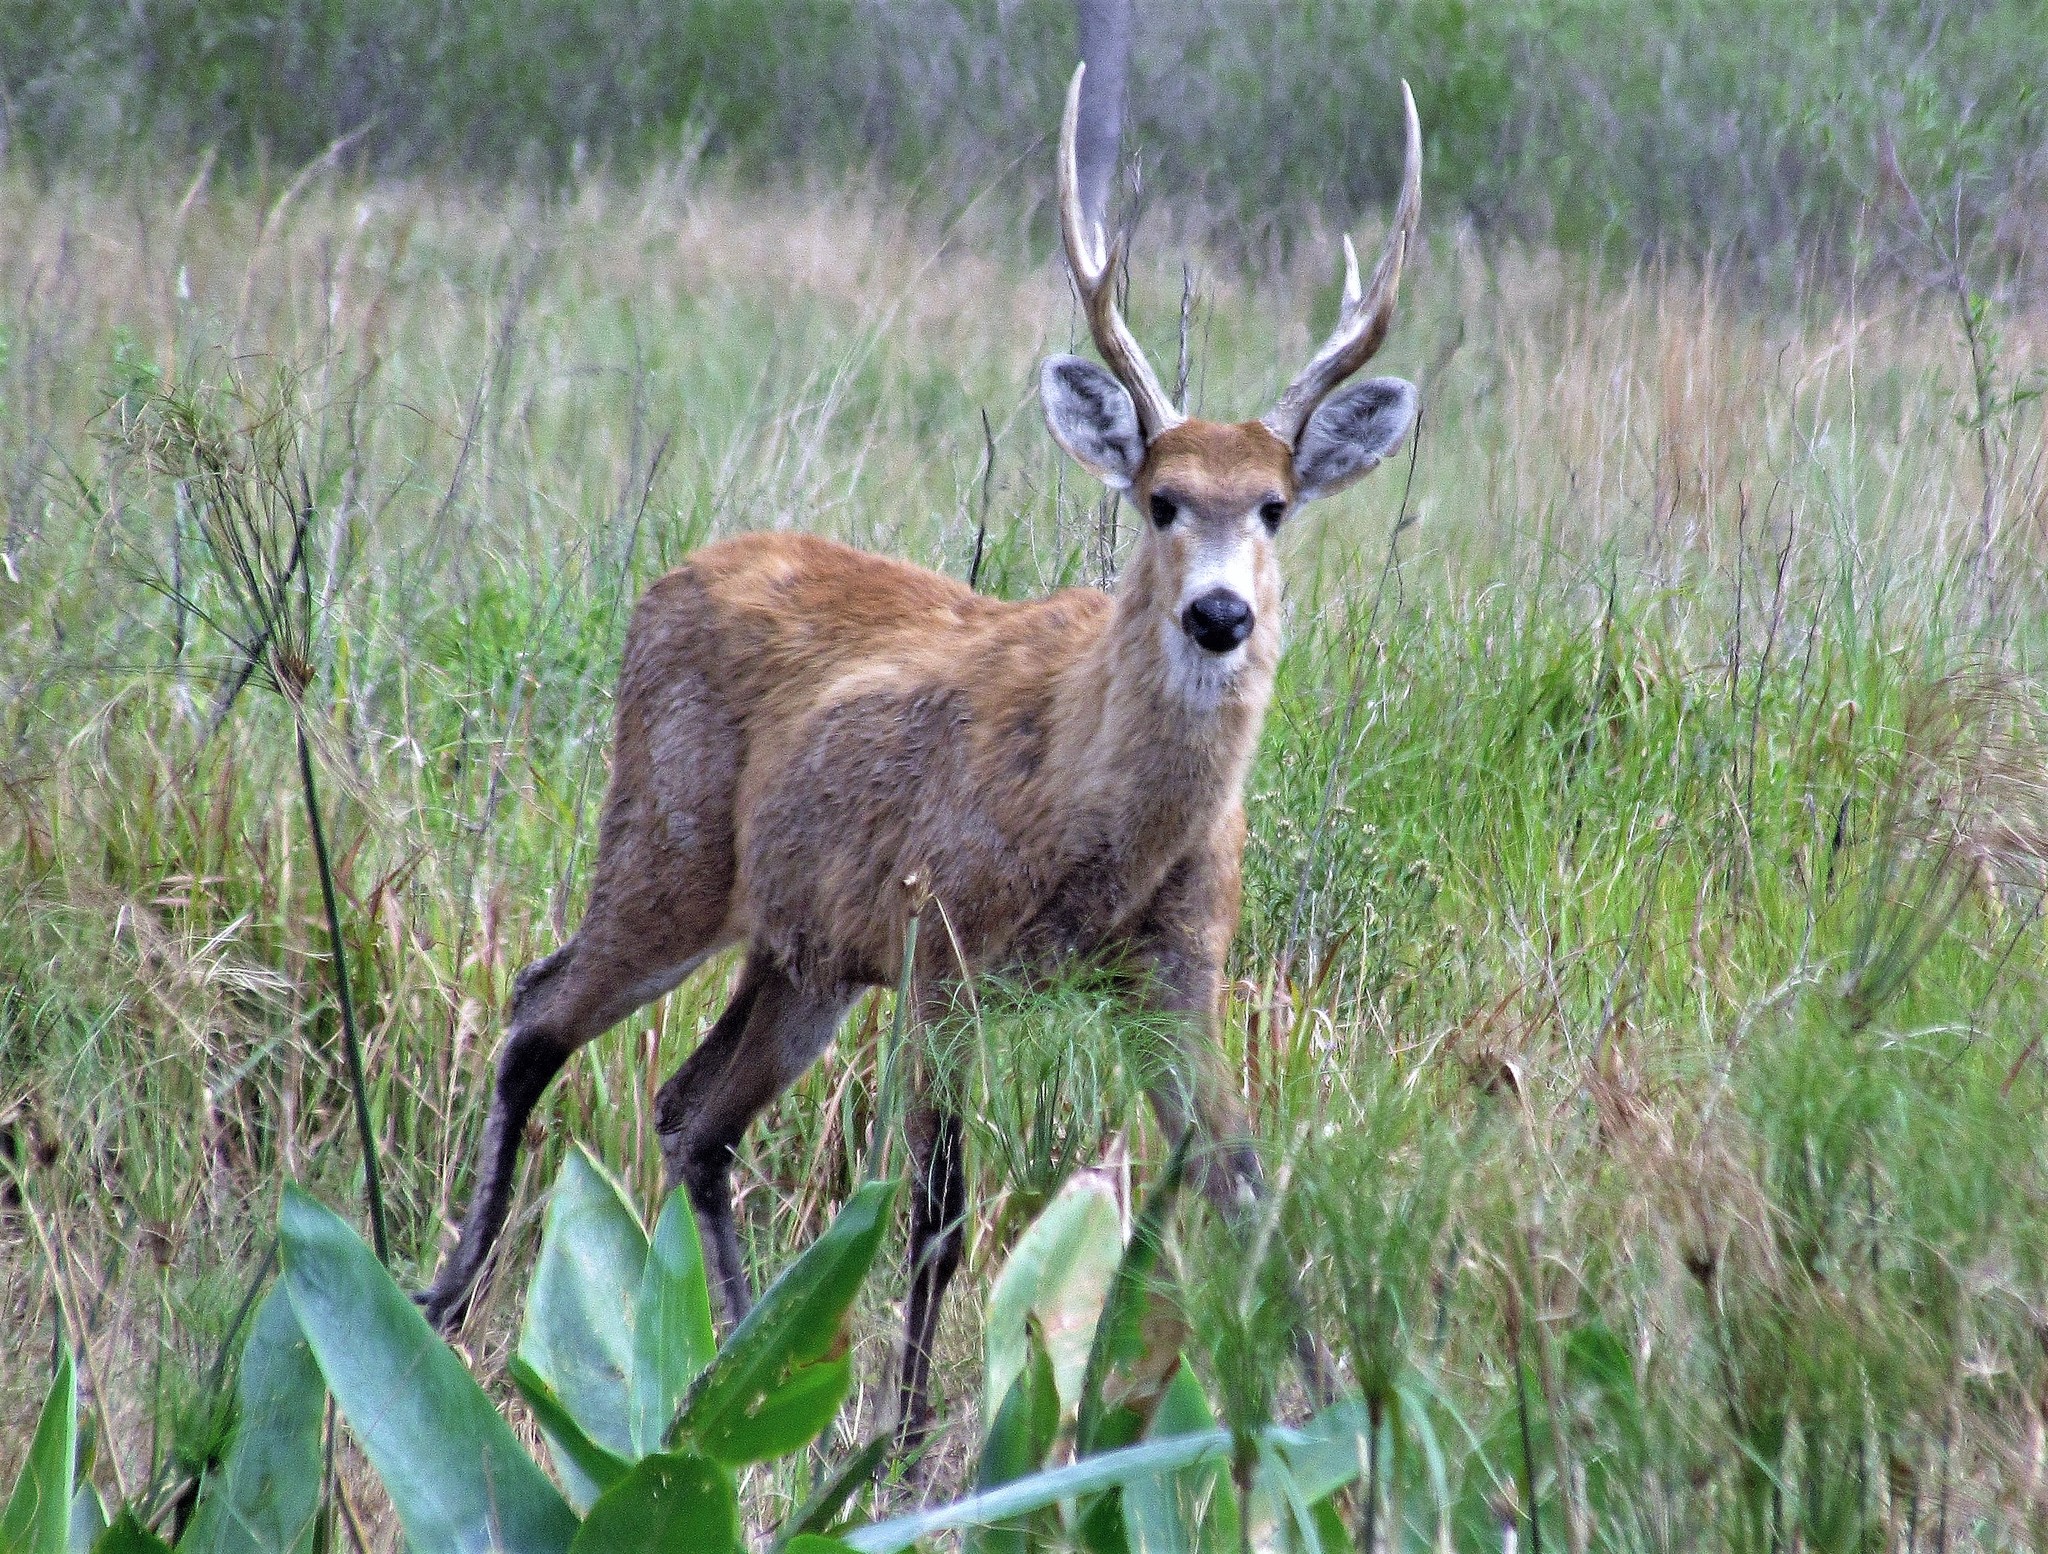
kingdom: Animalia
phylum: Chordata
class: Mammalia
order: Artiodactyla
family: Cervidae
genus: Blastocerus
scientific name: Blastocerus dichotomus
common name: Marsh deer
